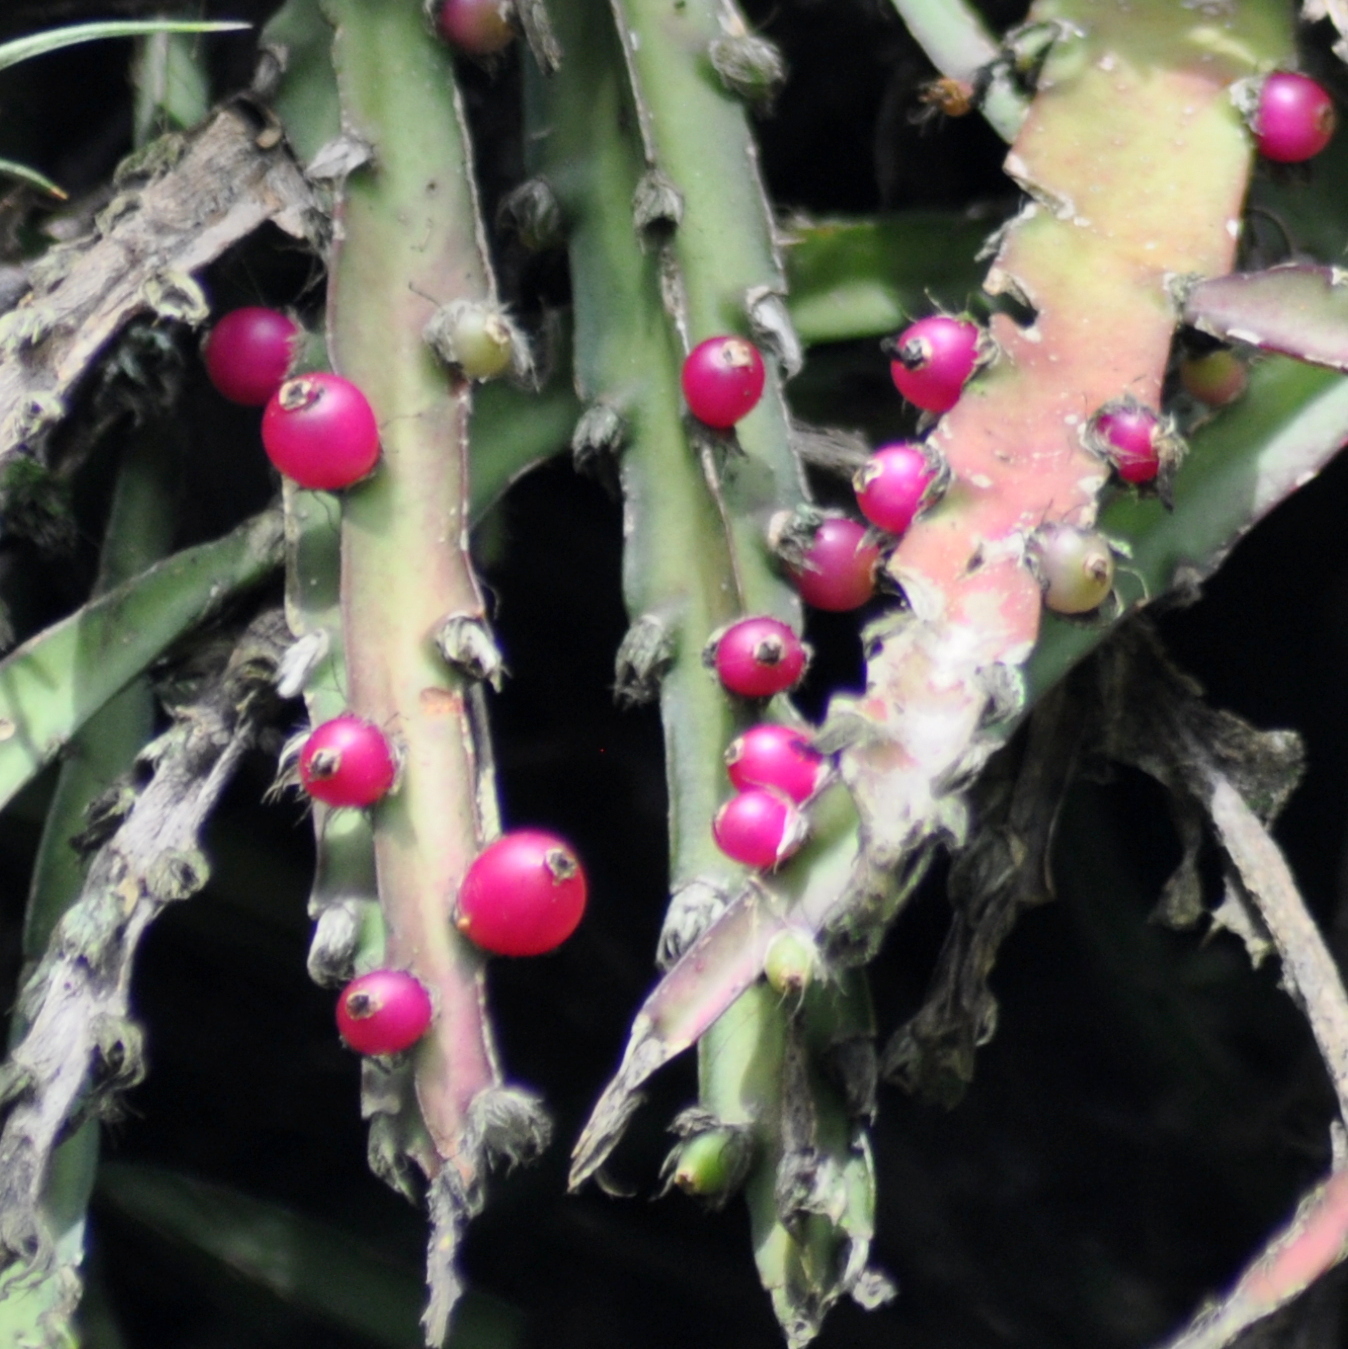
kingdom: Plantae
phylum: Tracheophyta
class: Magnoliopsida
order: Caryophyllales
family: Cactaceae
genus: Lepismium
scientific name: Lepismium cruciforme
